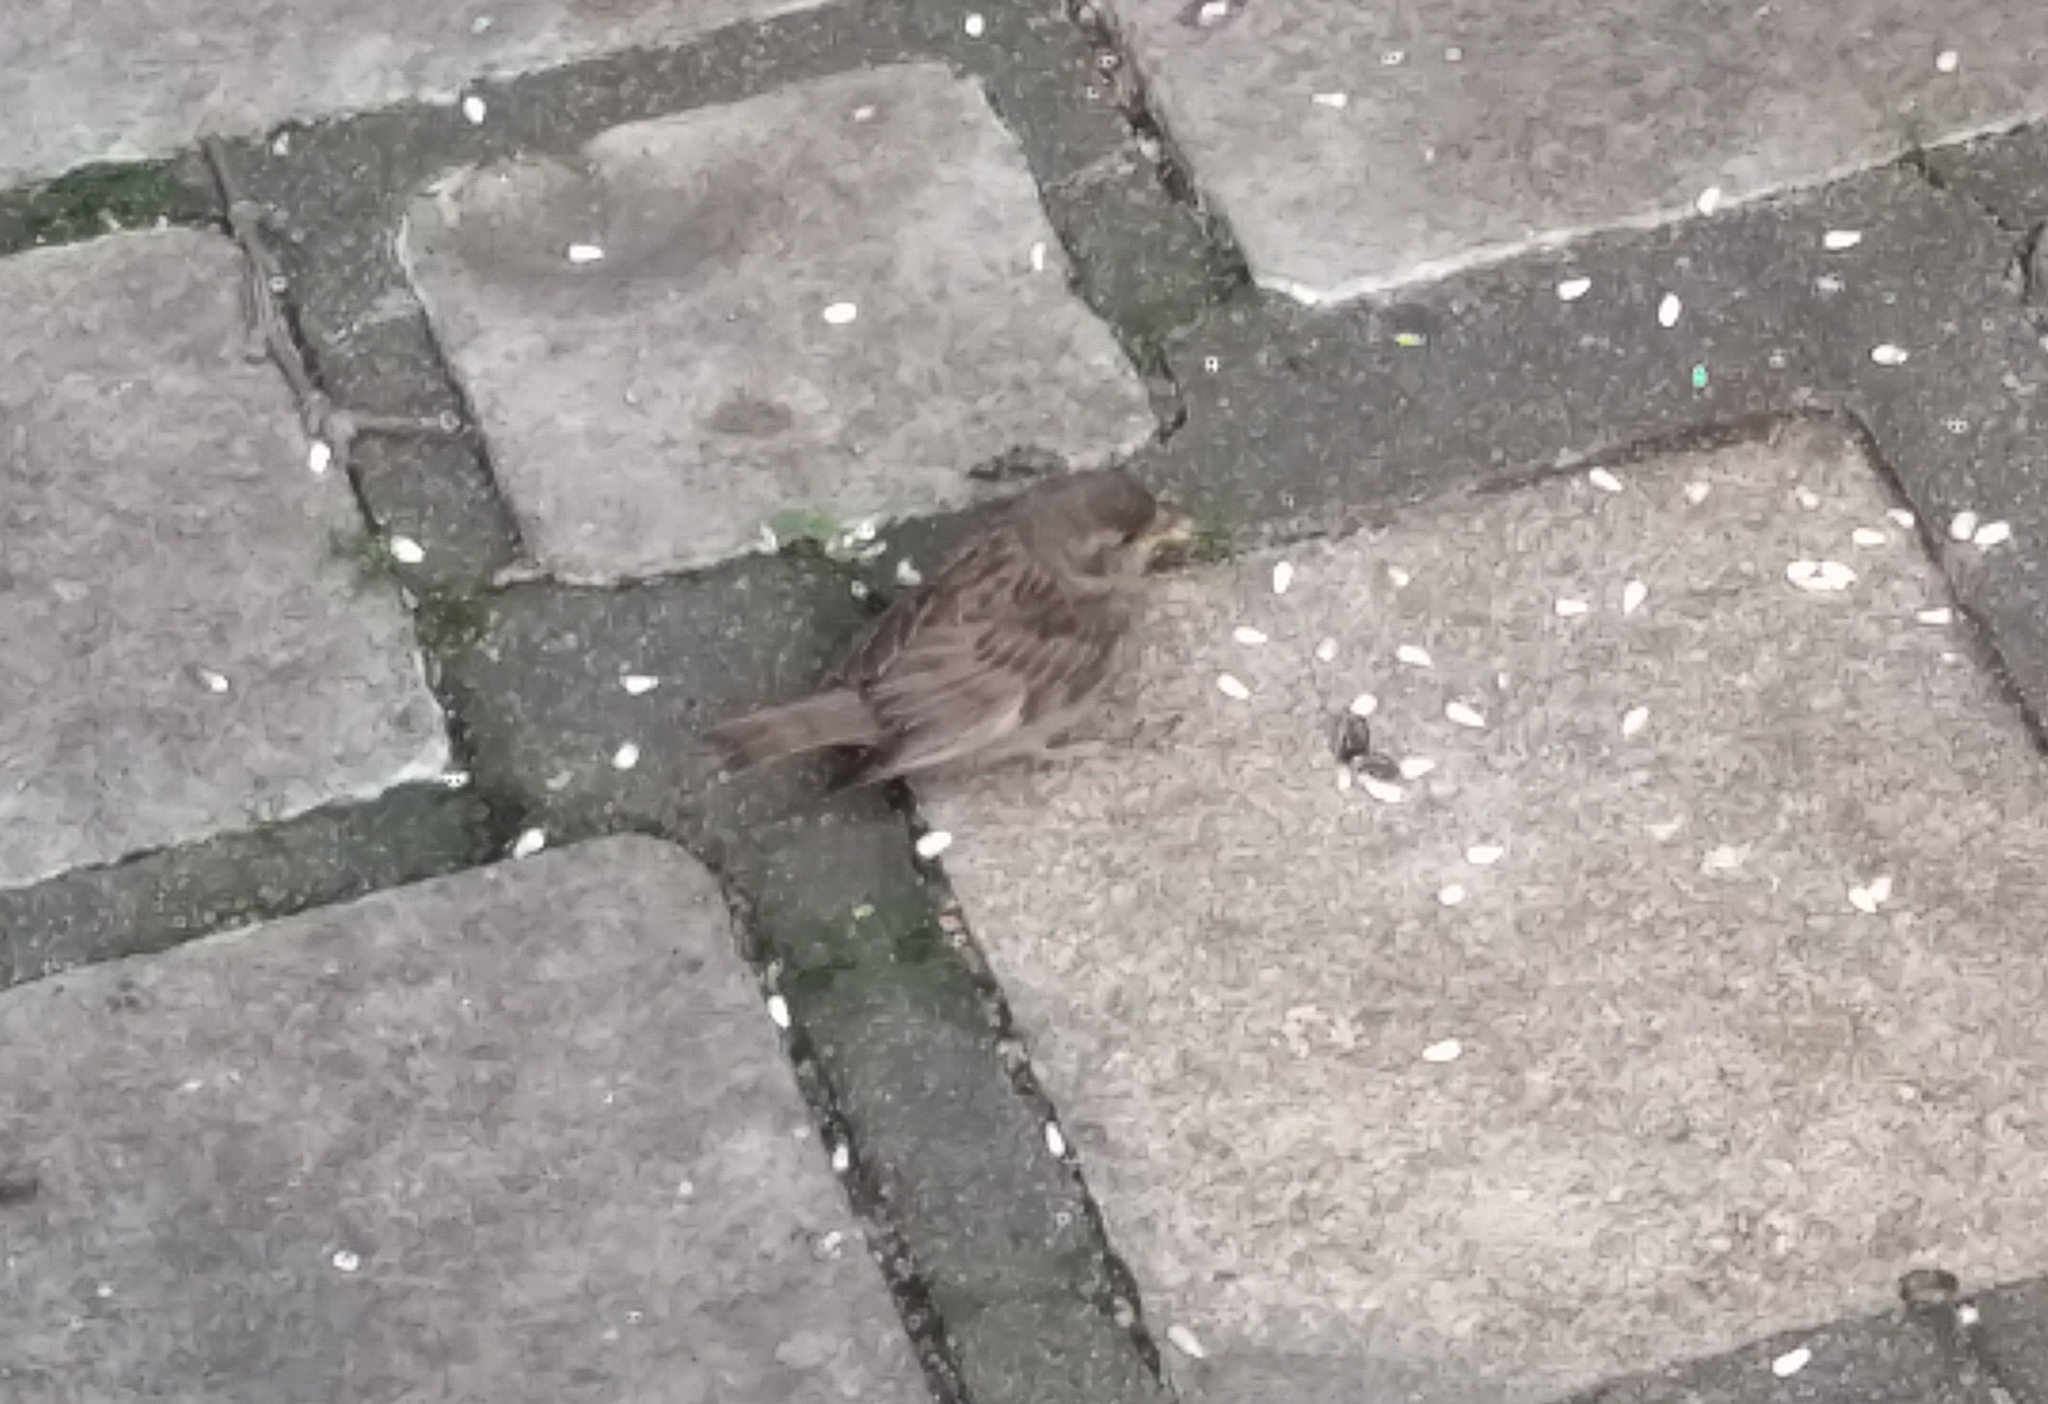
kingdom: Animalia
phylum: Chordata
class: Aves
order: Passeriformes
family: Passeridae
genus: Passer
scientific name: Passer domesticus
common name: House sparrow
